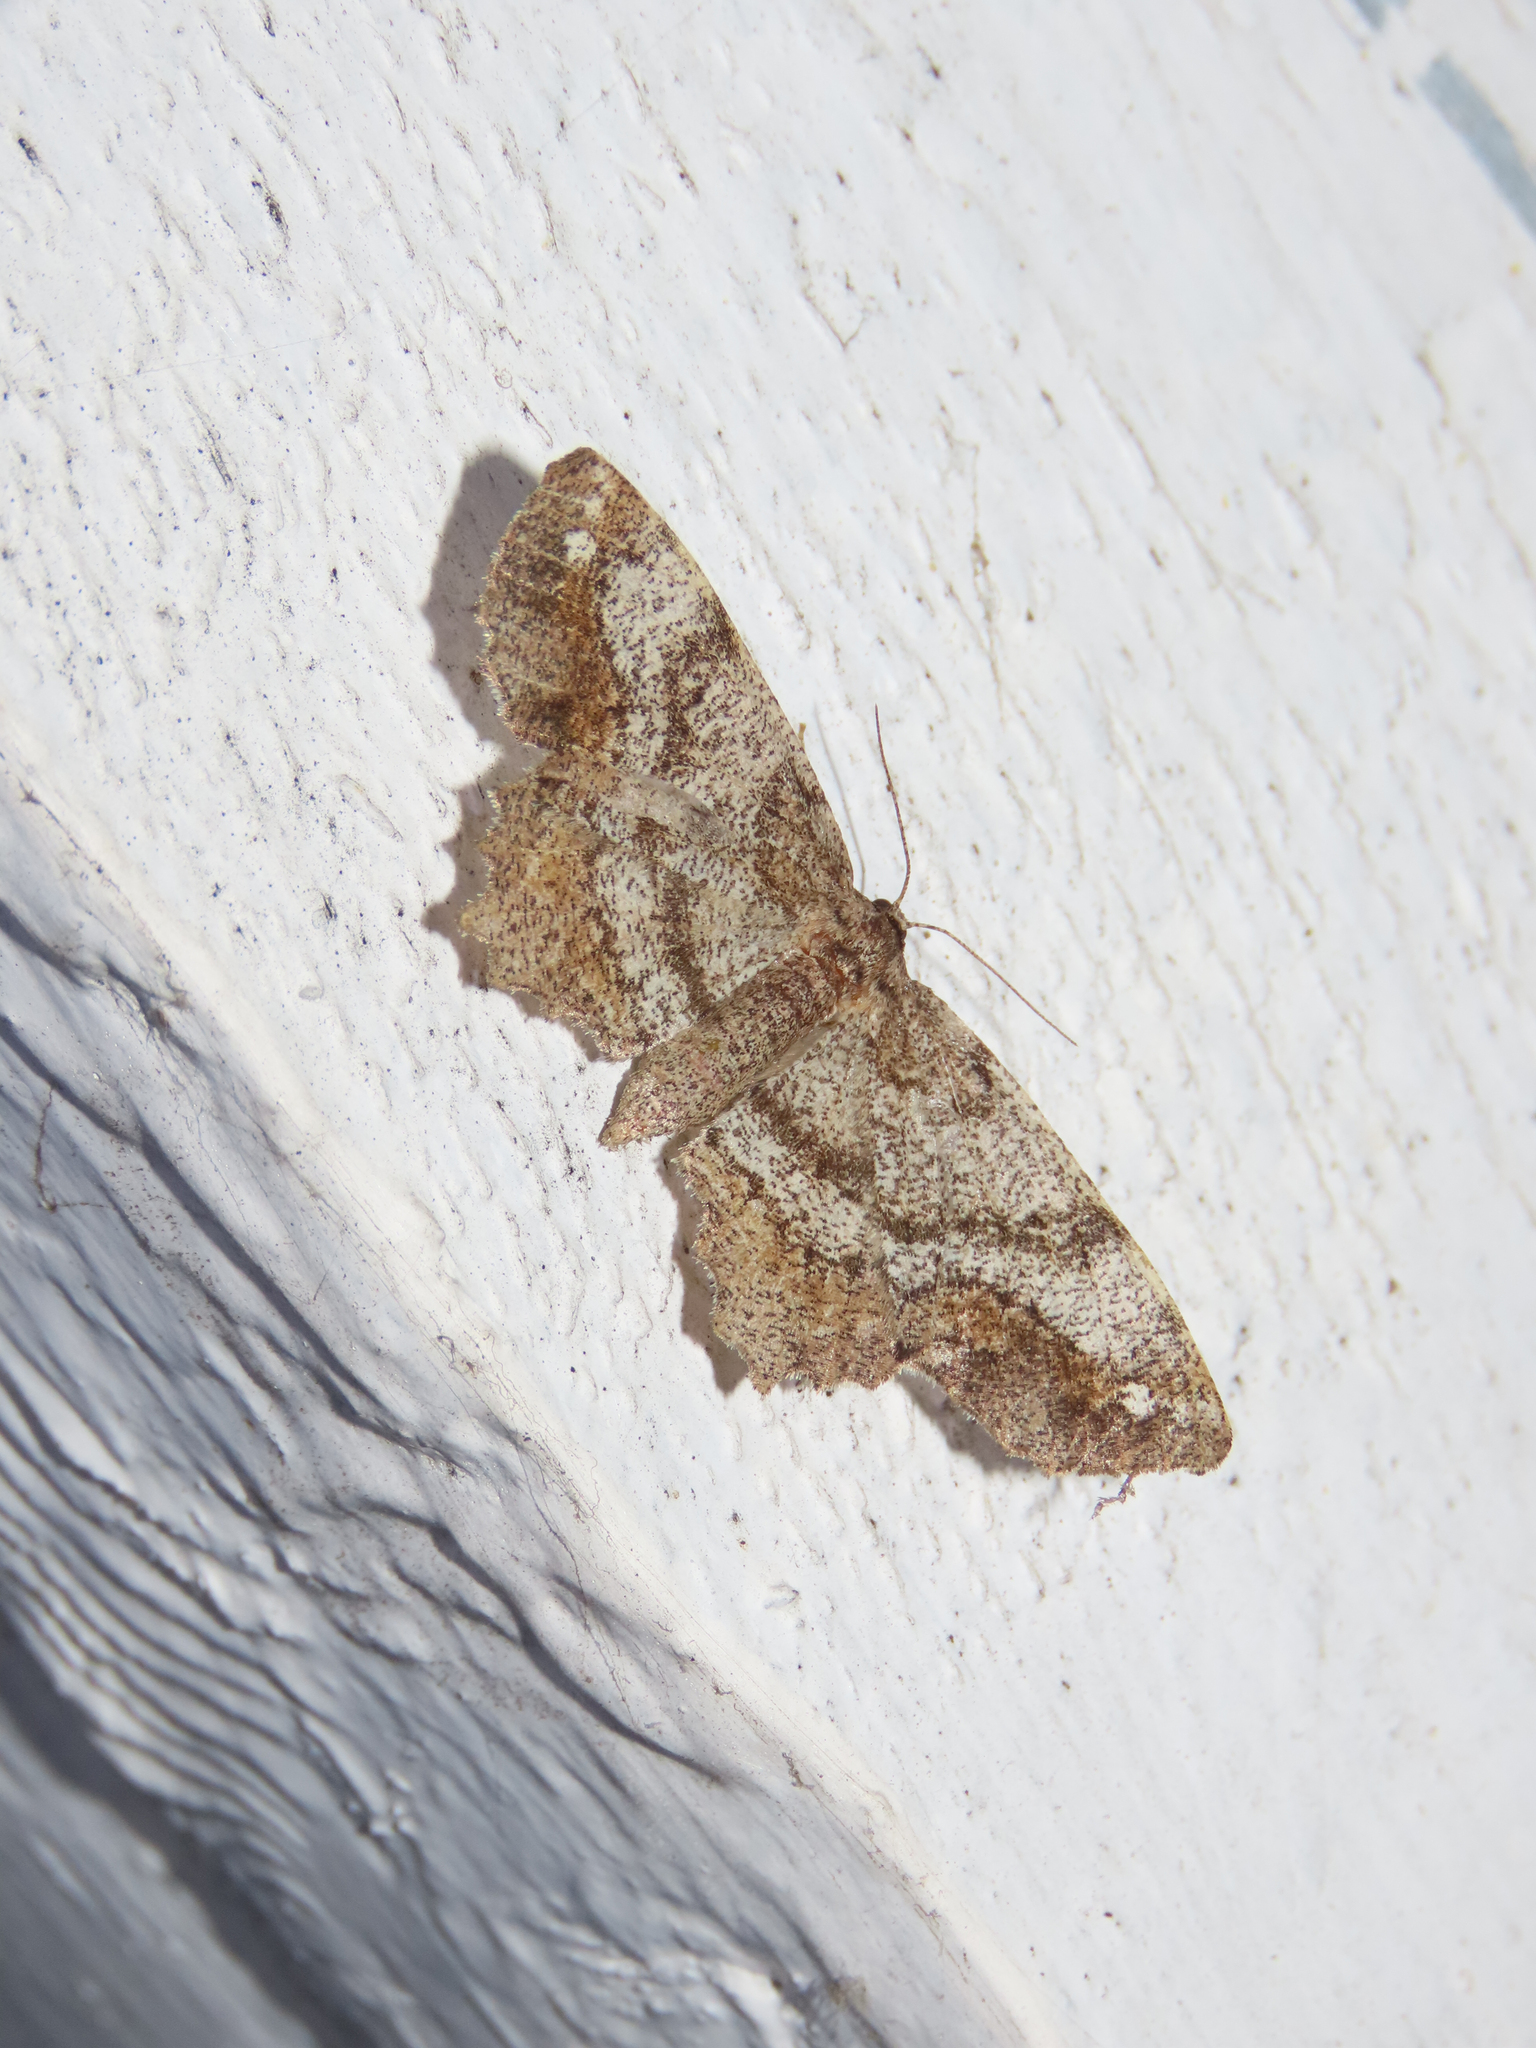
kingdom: Animalia
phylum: Arthropoda
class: Insecta
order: Lepidoptera
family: Geometridae
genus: Hypagyrtis
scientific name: Hypagyrtis unipunctata
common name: One-spotted variant
